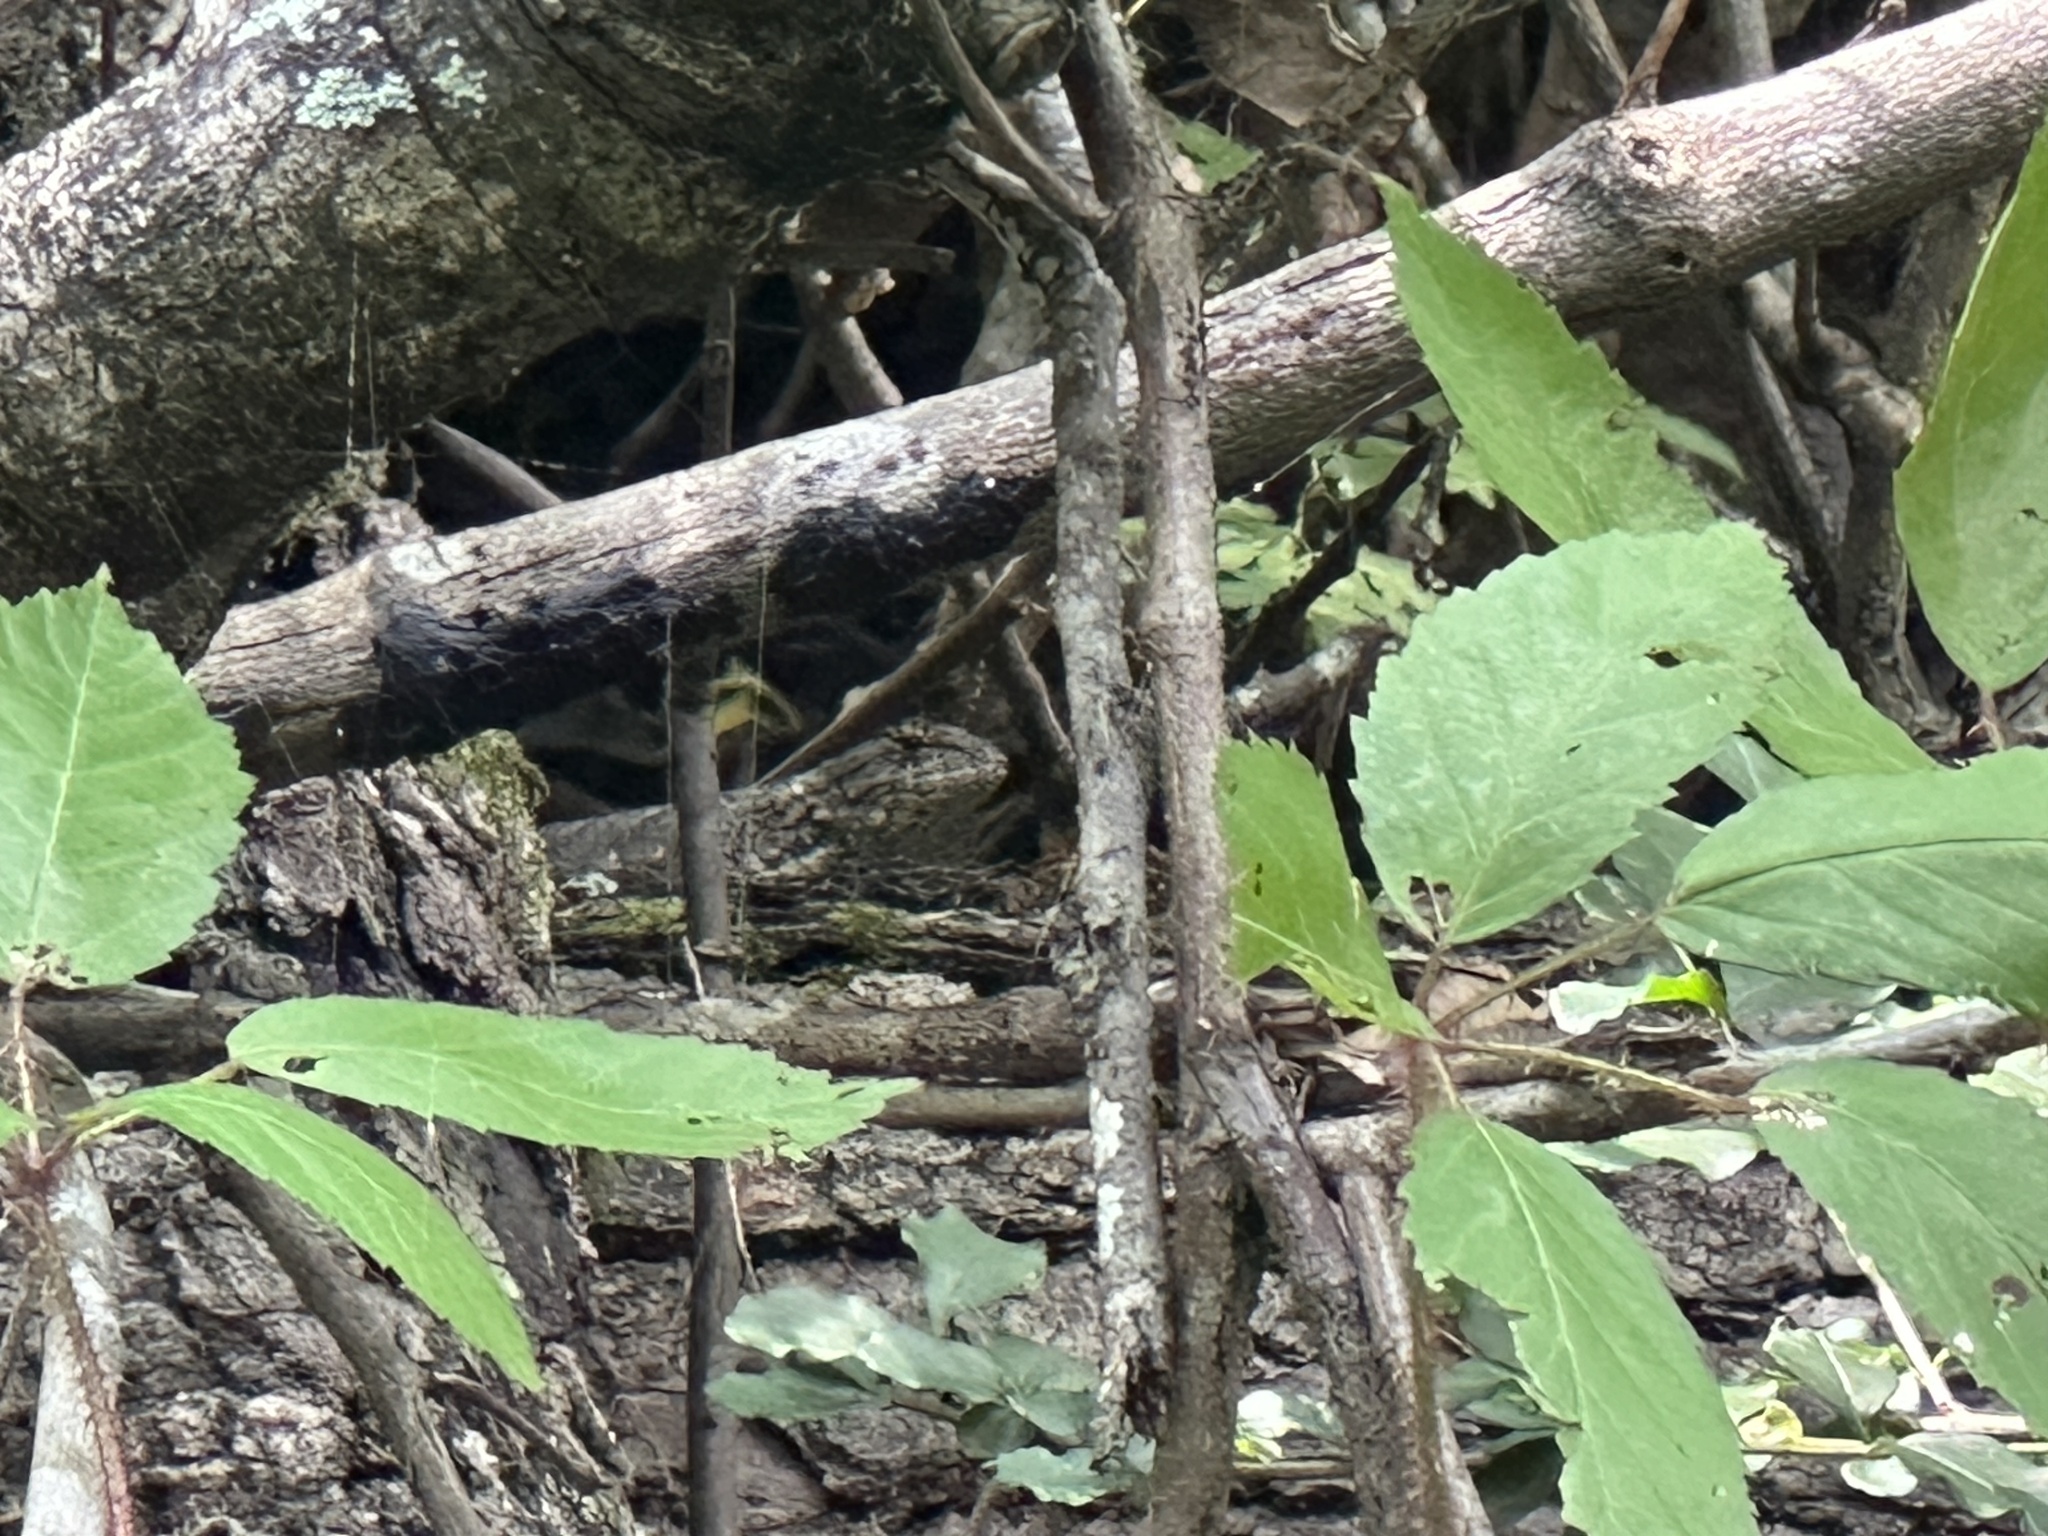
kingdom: Animalia
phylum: Chordata
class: Squamata
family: Phrynosomatidae
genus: Sceloporus
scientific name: Sceloporus undulatus
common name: Eastern fence lizard
